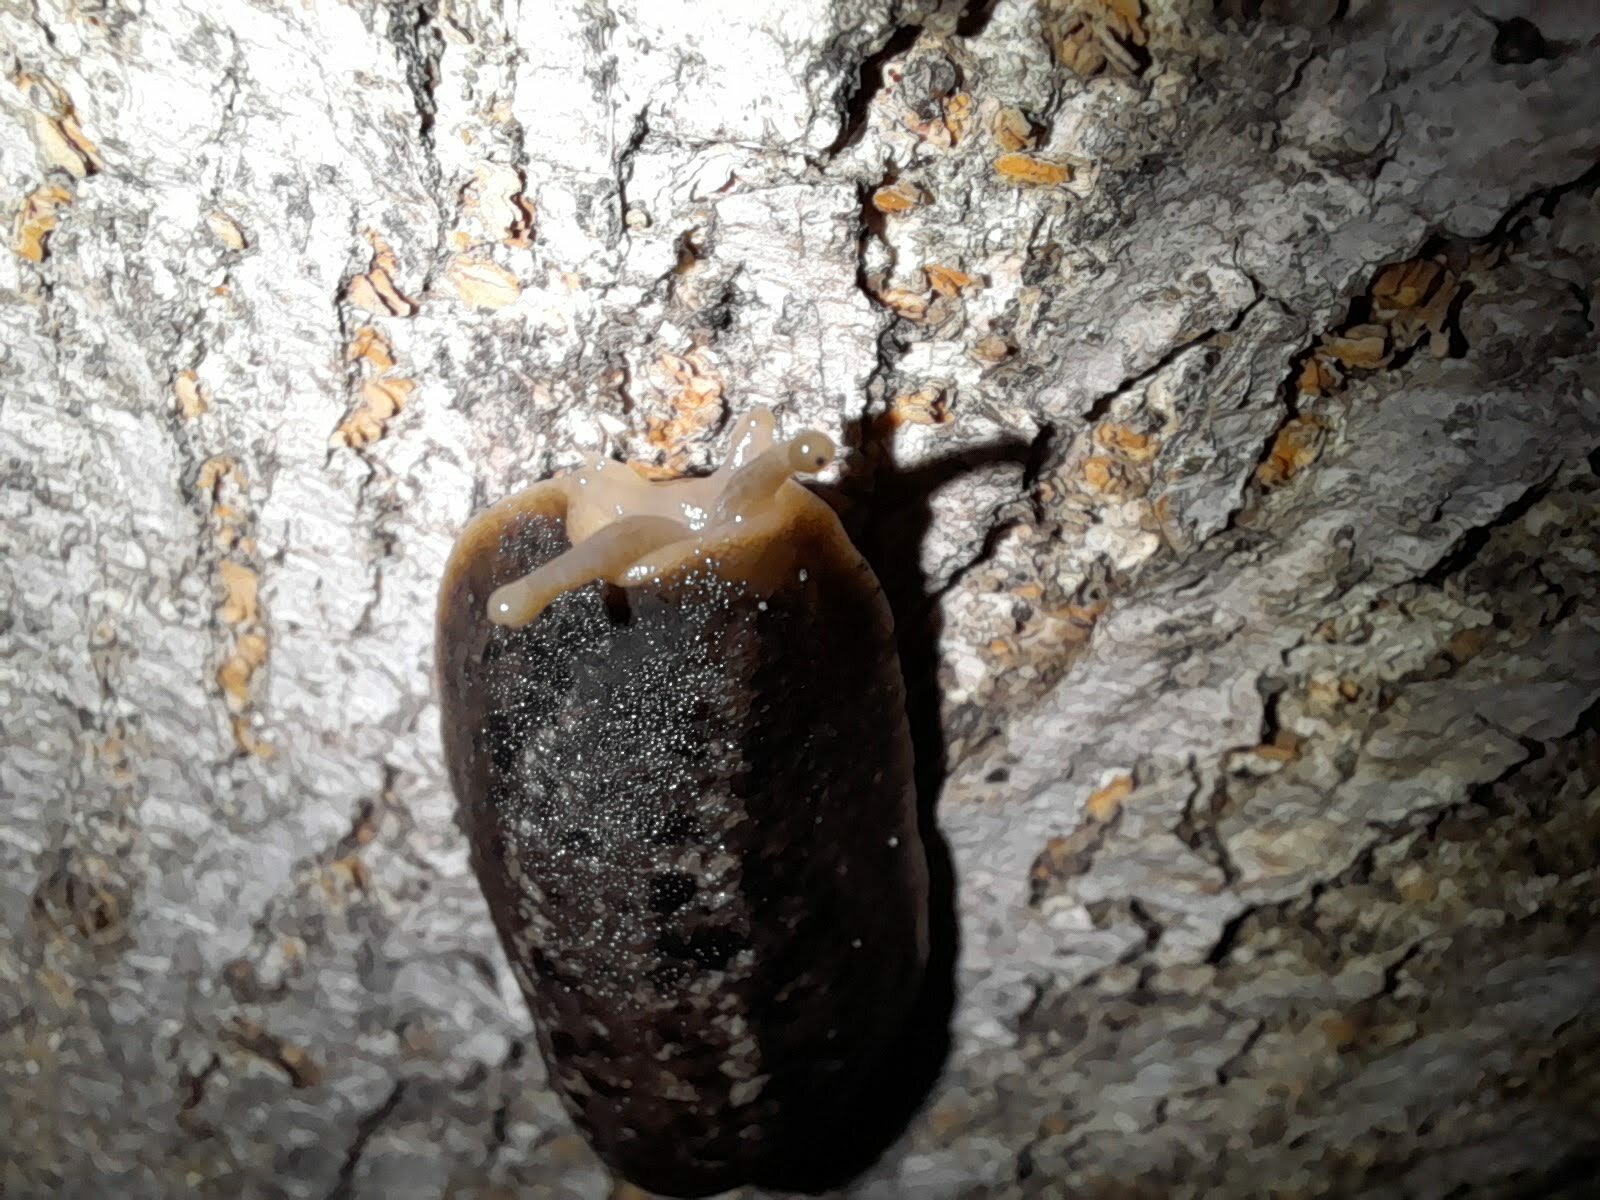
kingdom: Animalia
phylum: Mollusca
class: Gastropoda
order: Systellommatophora
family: Veronicellidae
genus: Phyllocaulis
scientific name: Phyllocaulis soleiformis
